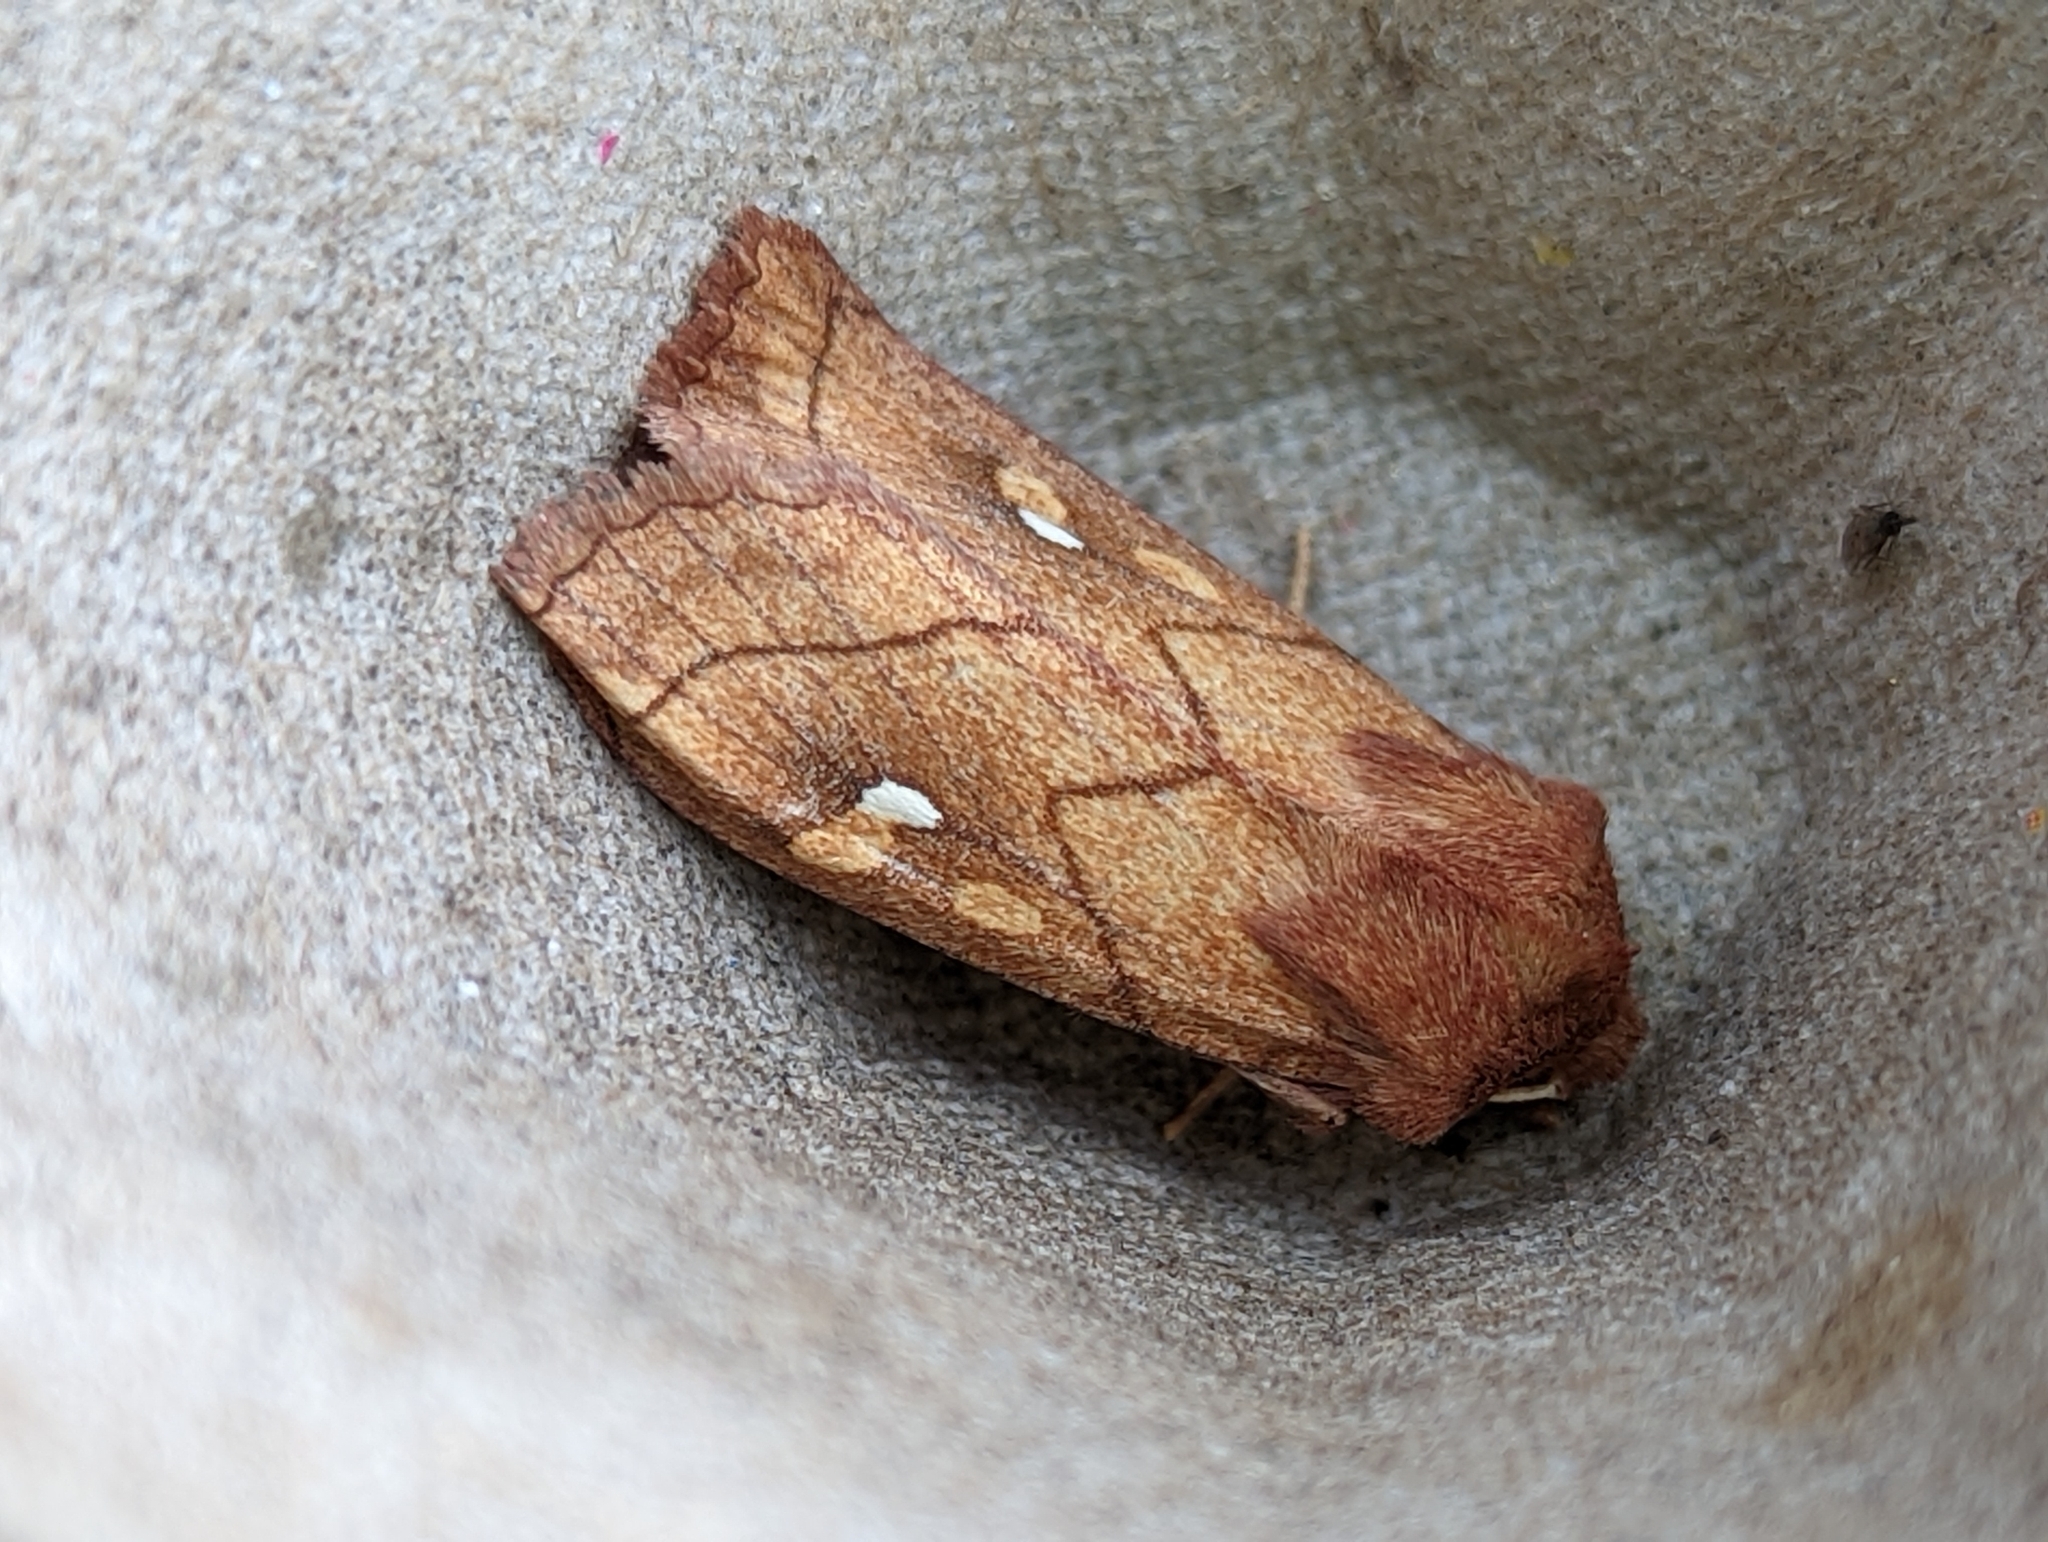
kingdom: Animalia
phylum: Arthropoda
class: Insecta
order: Lepidoptera
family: Noctuidae
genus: Mythimna
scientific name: Mythimna conigera
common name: Brown-line bright-eye
